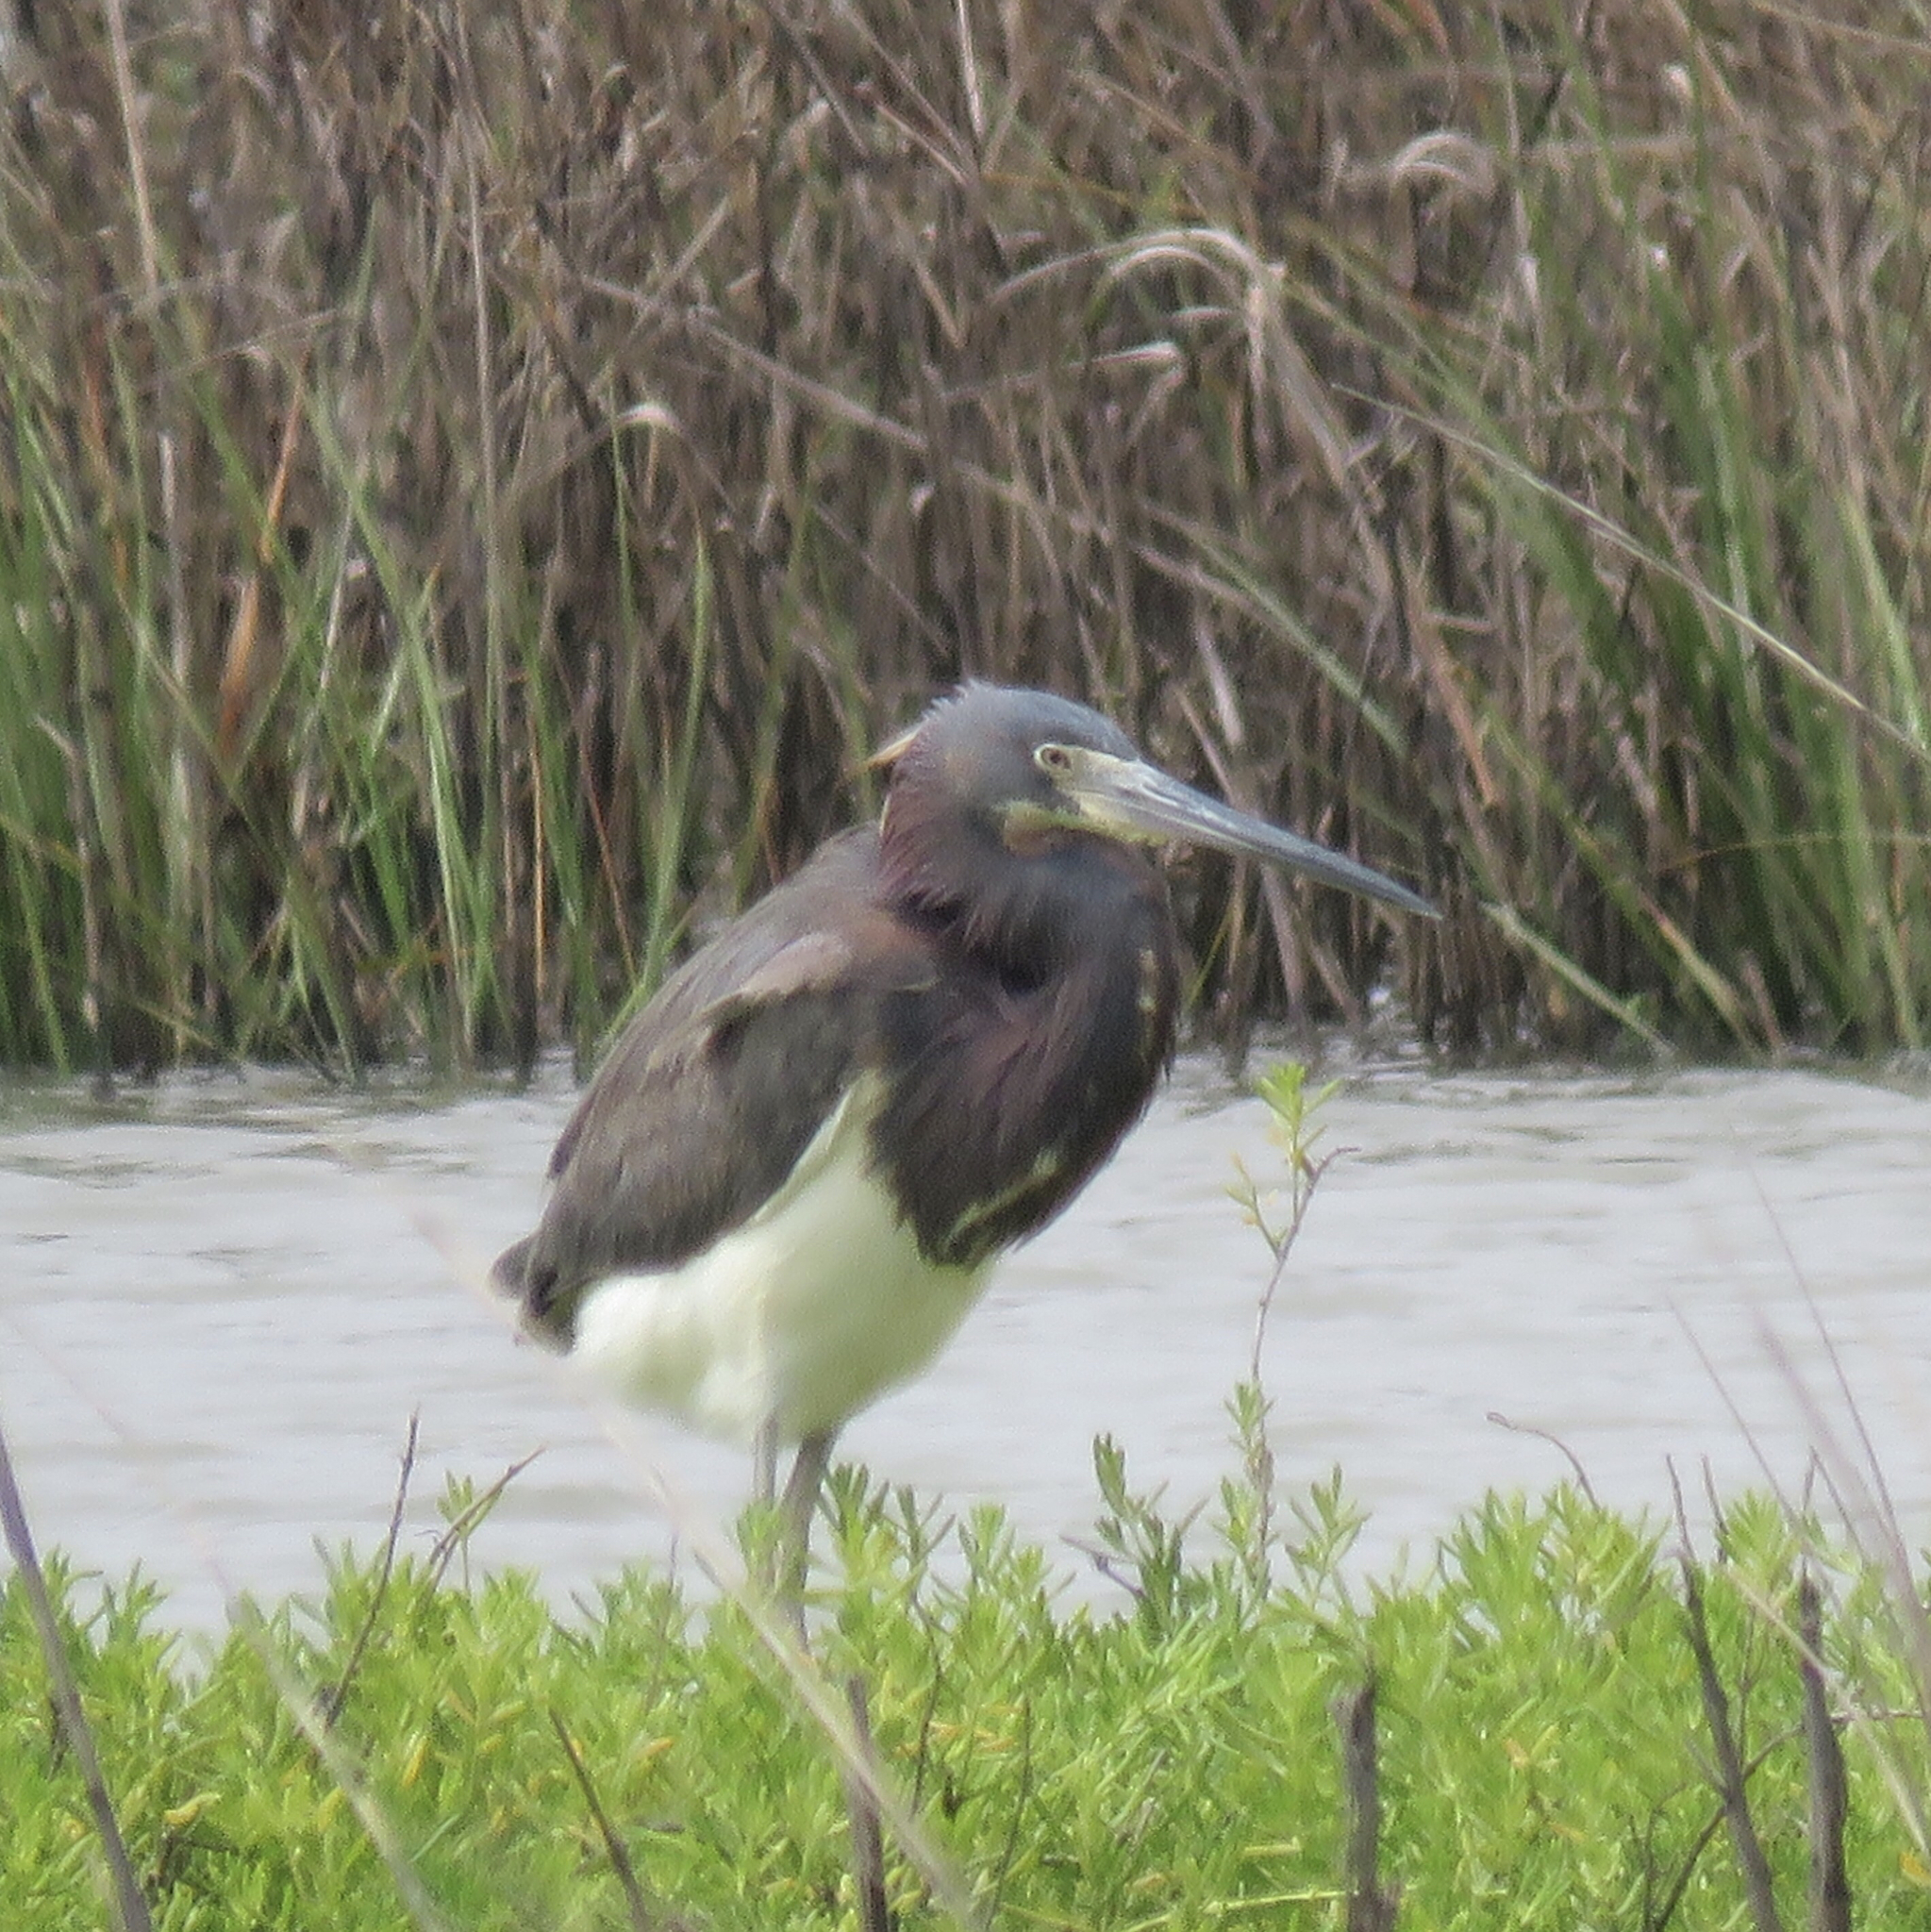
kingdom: Animalia
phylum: Chordata
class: Aves
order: Pelecaniformes
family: Ardeidae
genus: Egretta
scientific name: Egretta tricolor
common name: Tricolored heron
